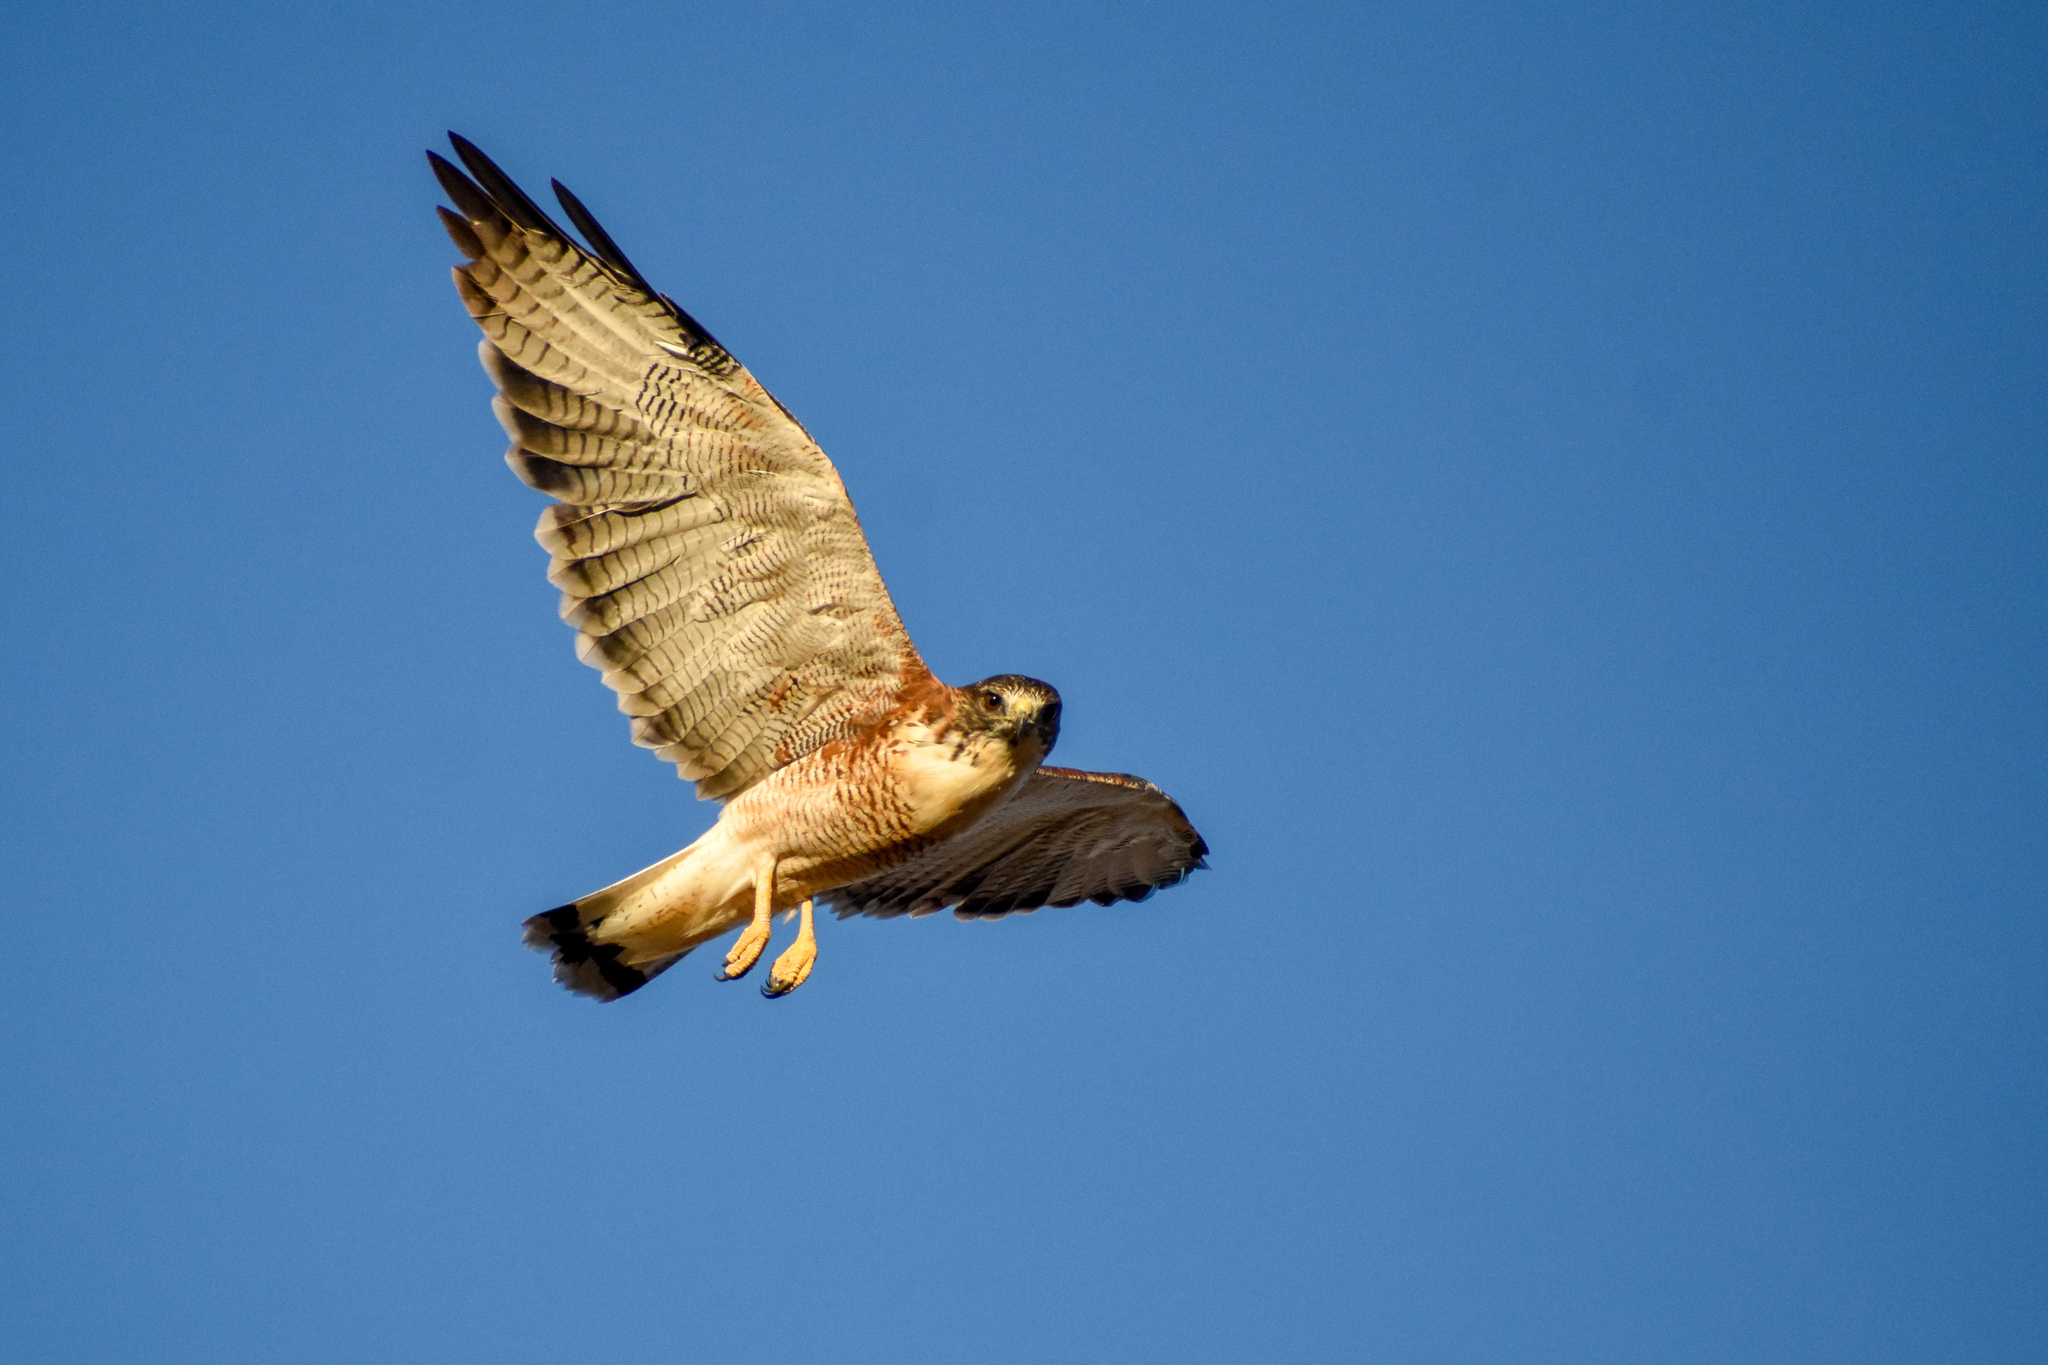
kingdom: Animalia
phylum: Chordata
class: Aves
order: Accipitriformes
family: Accipitridae
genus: Buteo
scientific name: Buteo polyosoma
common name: Variable hawk
